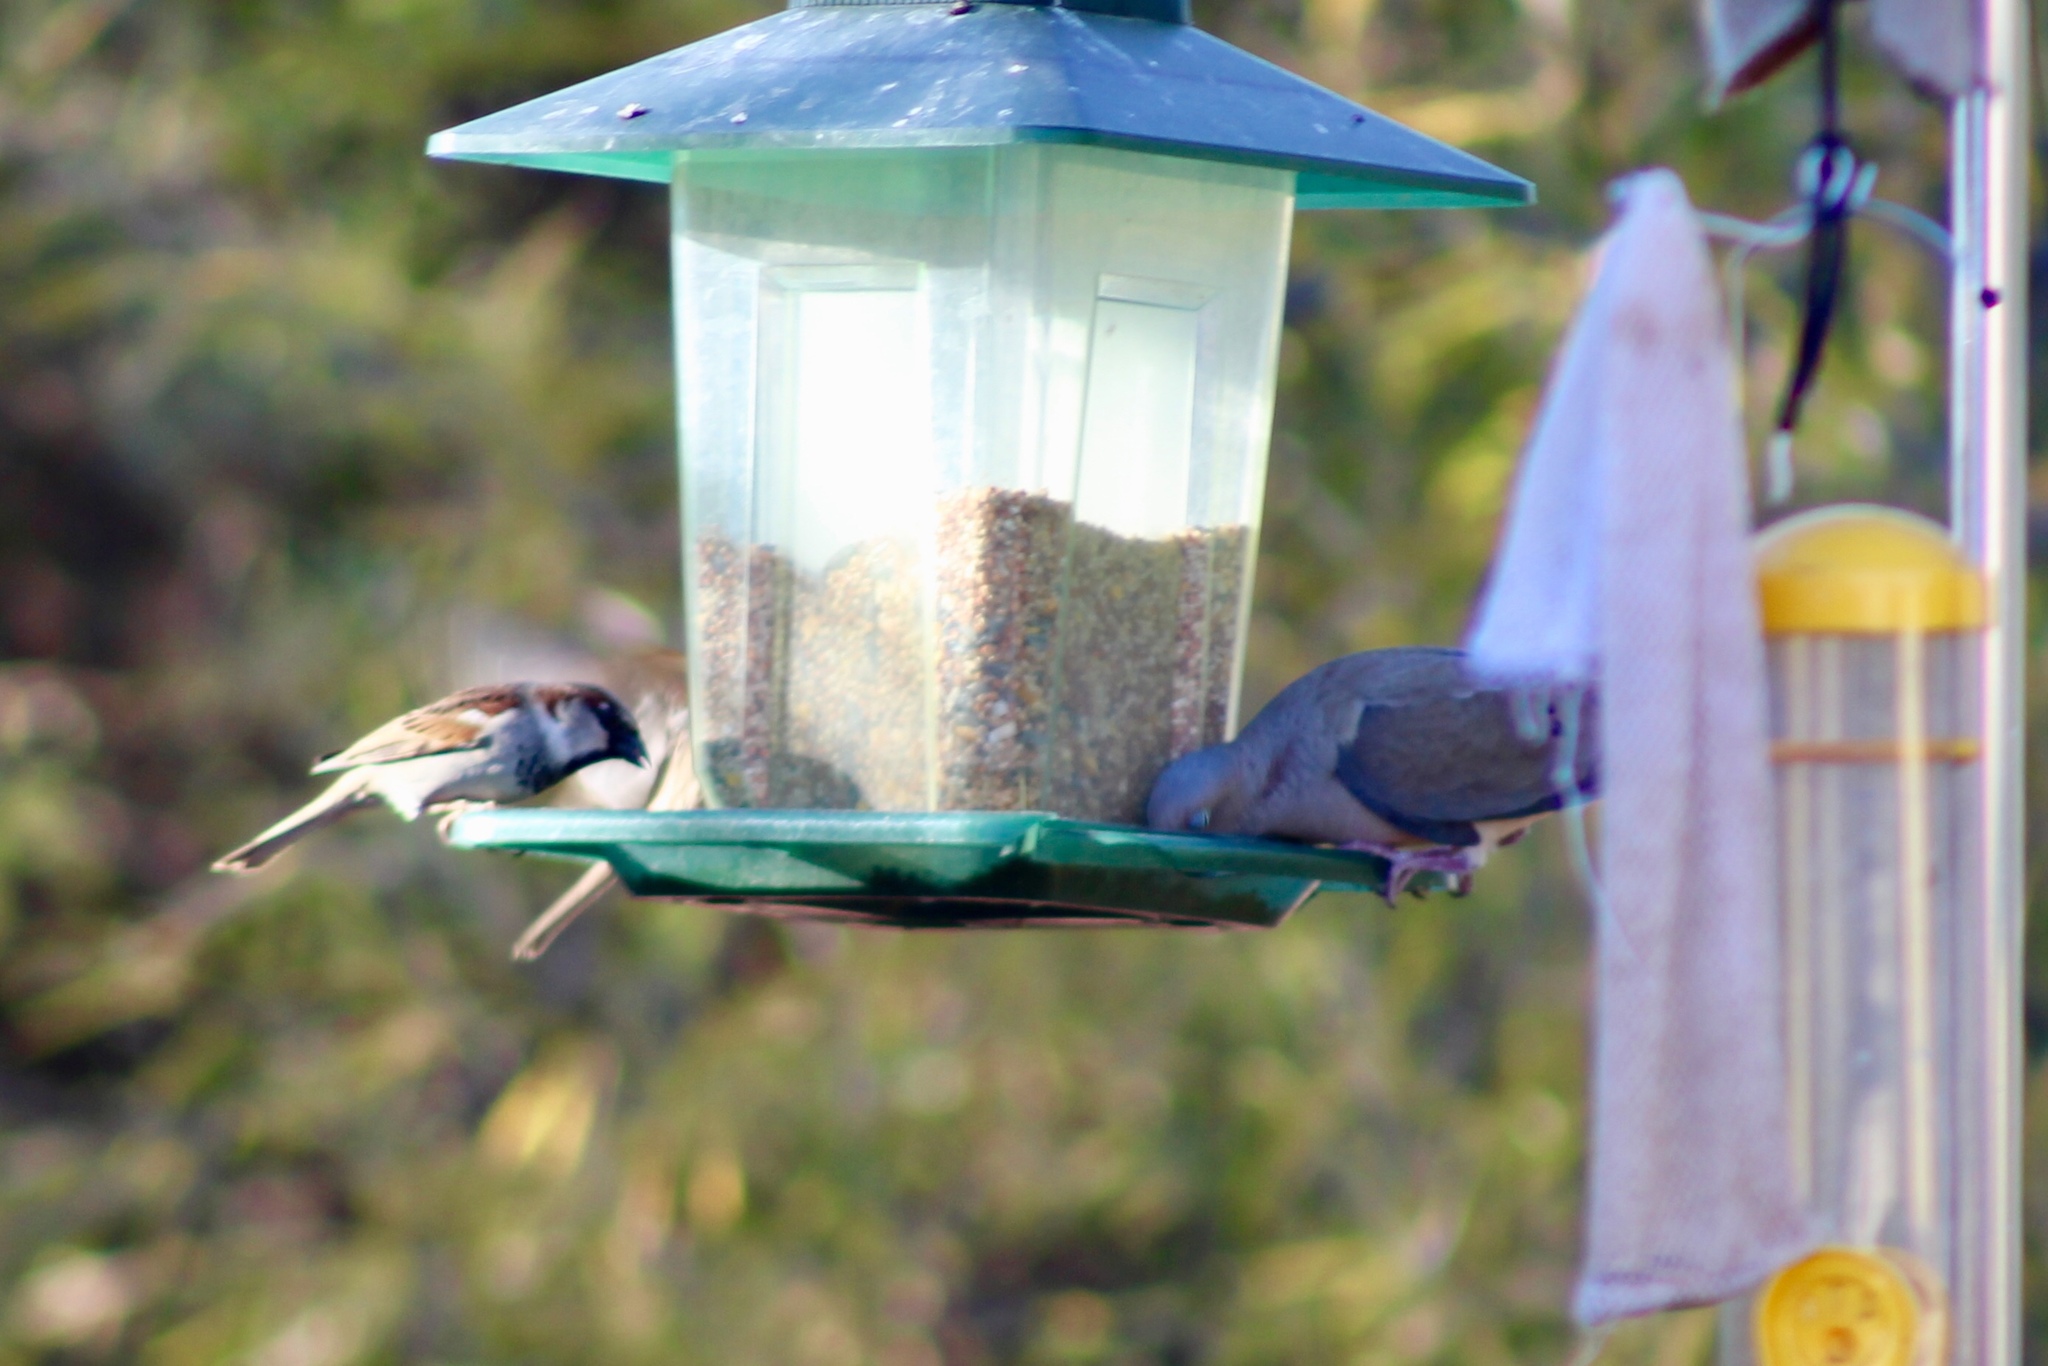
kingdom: Animalia
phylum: Chordata
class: Aves
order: Columbiformes
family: Columbidae
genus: Zenaida
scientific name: Zenaida macroura
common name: Mourning dove
